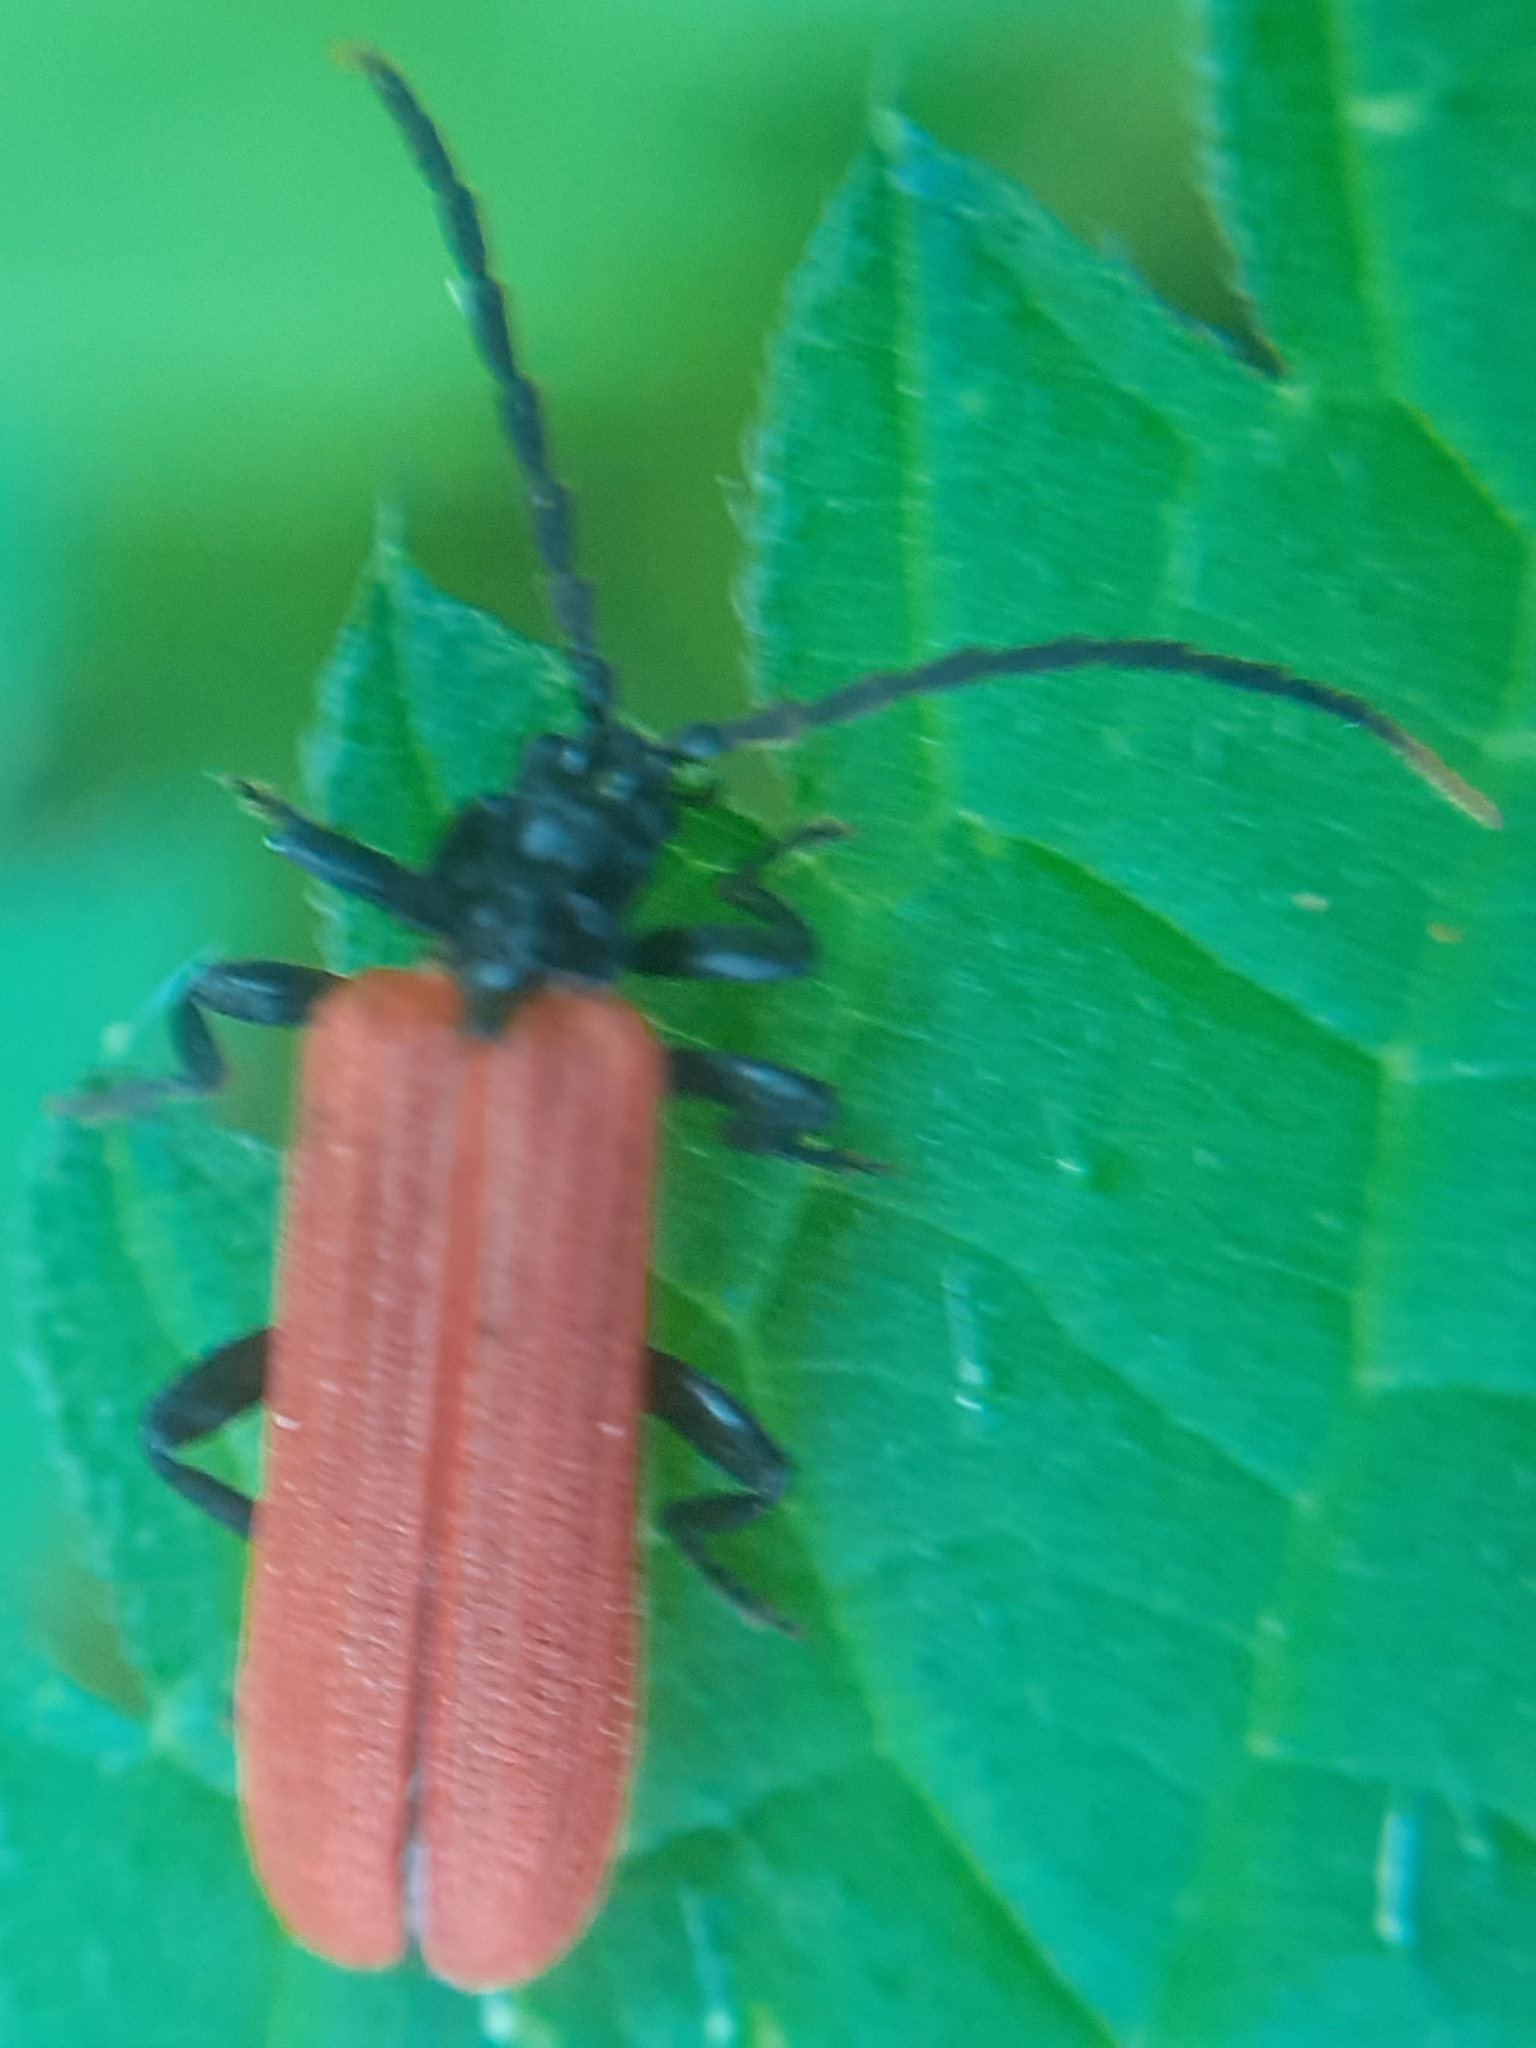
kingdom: Animalia
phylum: Arthropoda
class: Insecta
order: Coleoptera
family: Lycidae
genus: Platycis
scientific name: Platycis minutus
